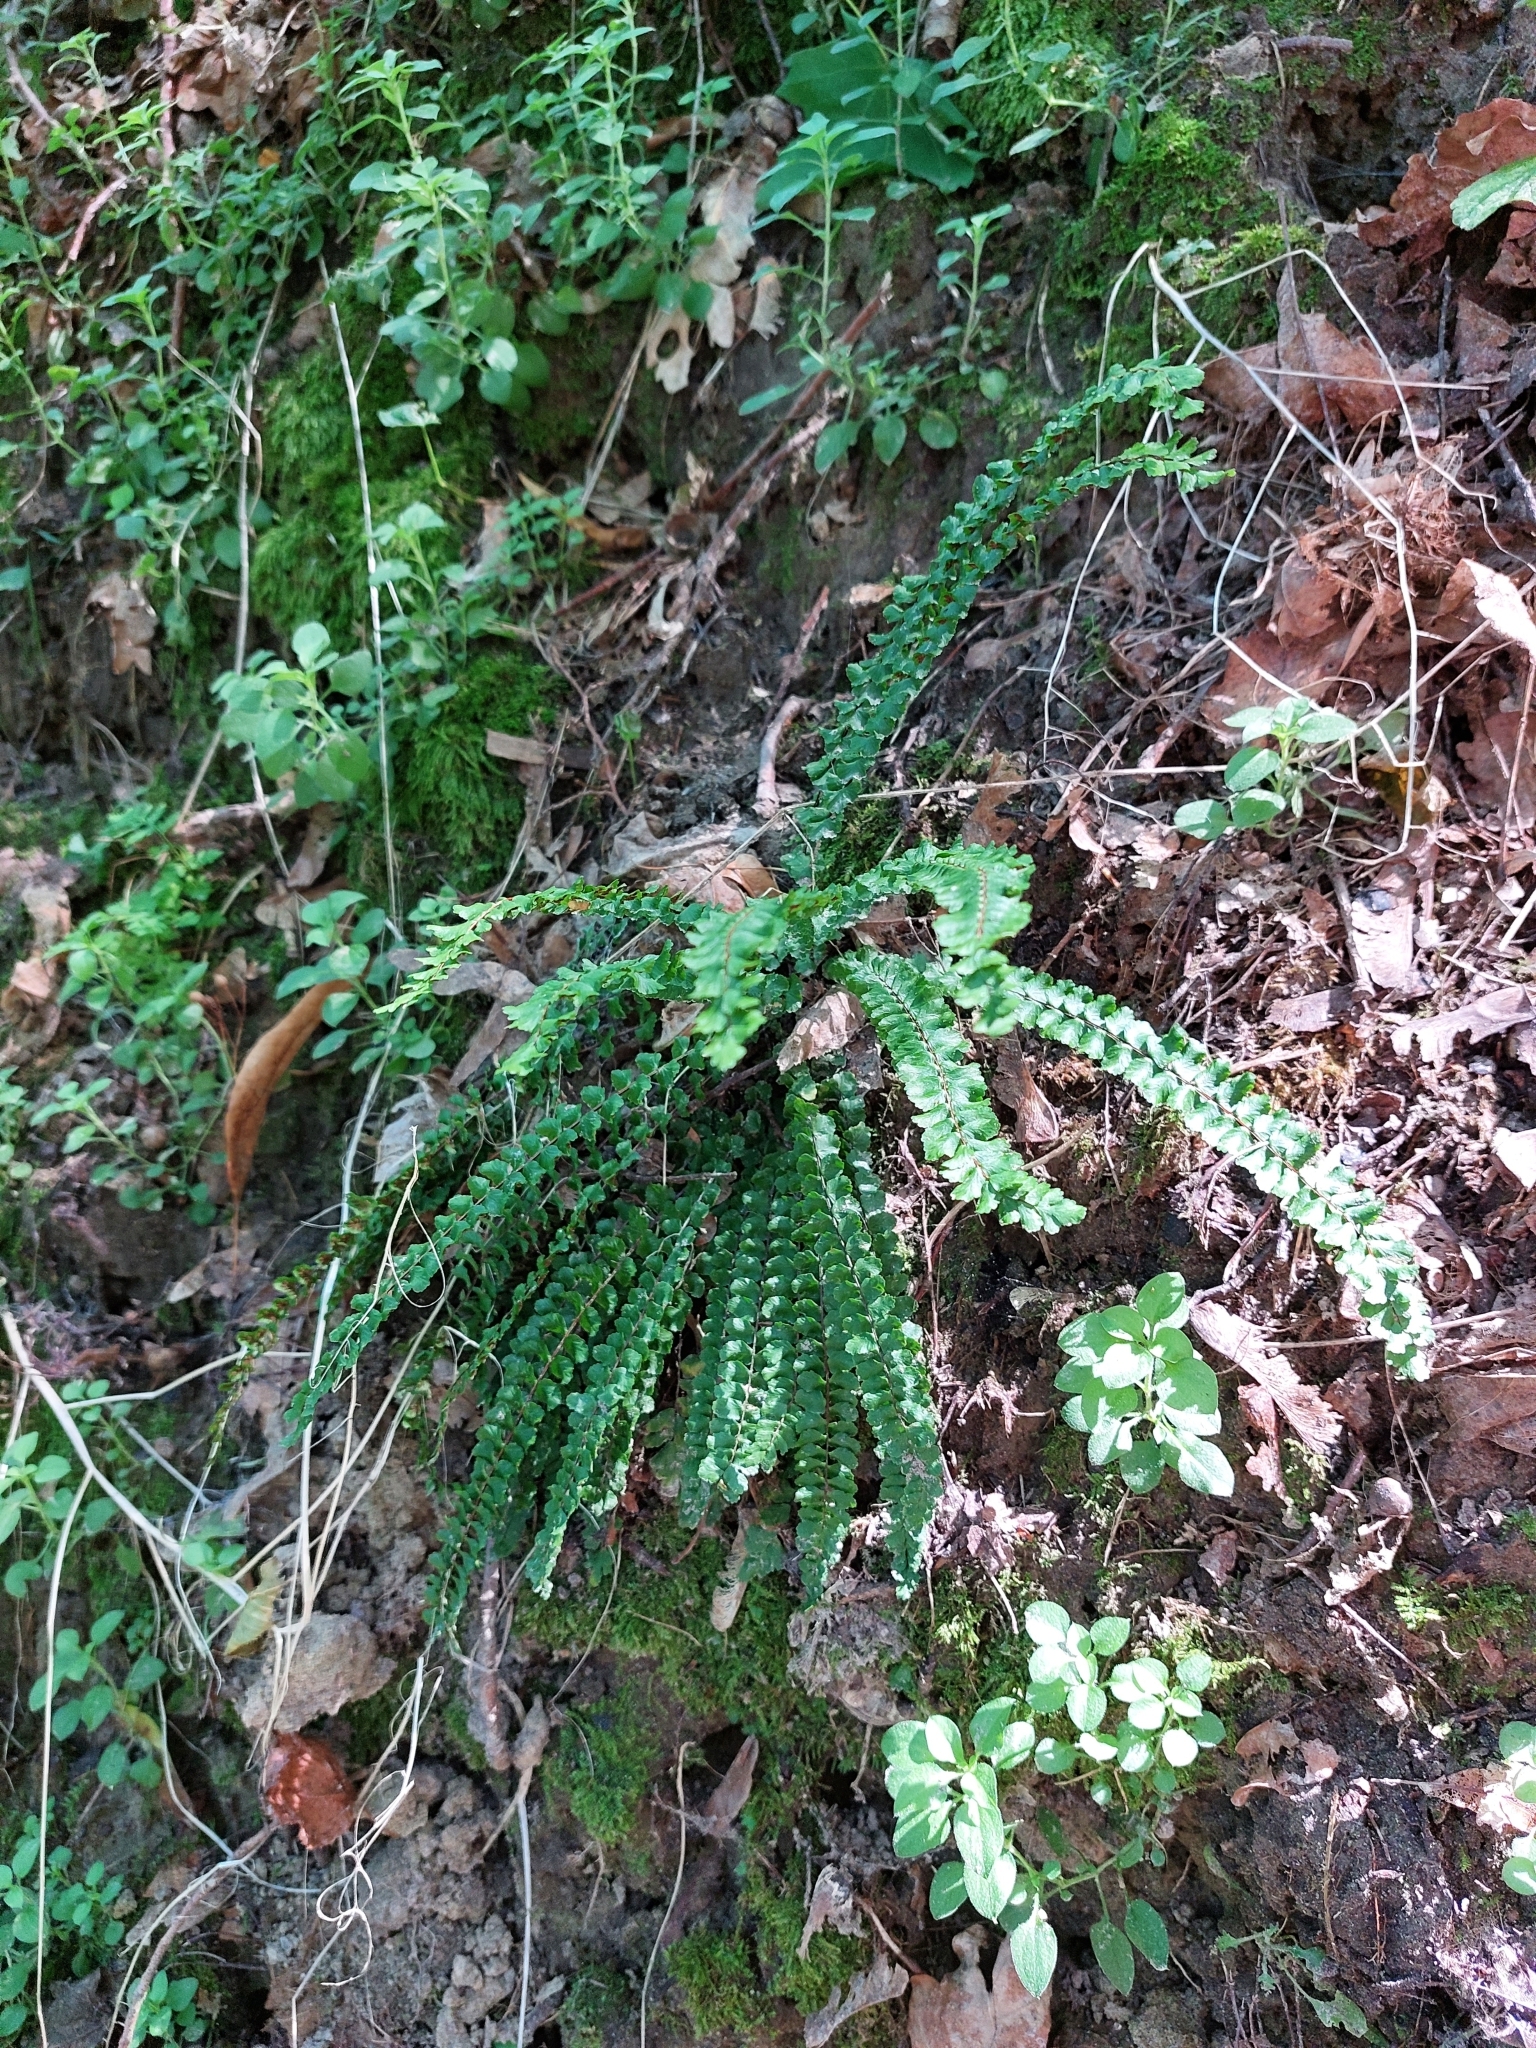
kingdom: Plantae
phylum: Tracheophyta
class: Polypodiopsida
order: Polypodiales
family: Aspleniaceae
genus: Asplenium
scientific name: Asplenium trichomanes
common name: Maidenhair spleenwort
